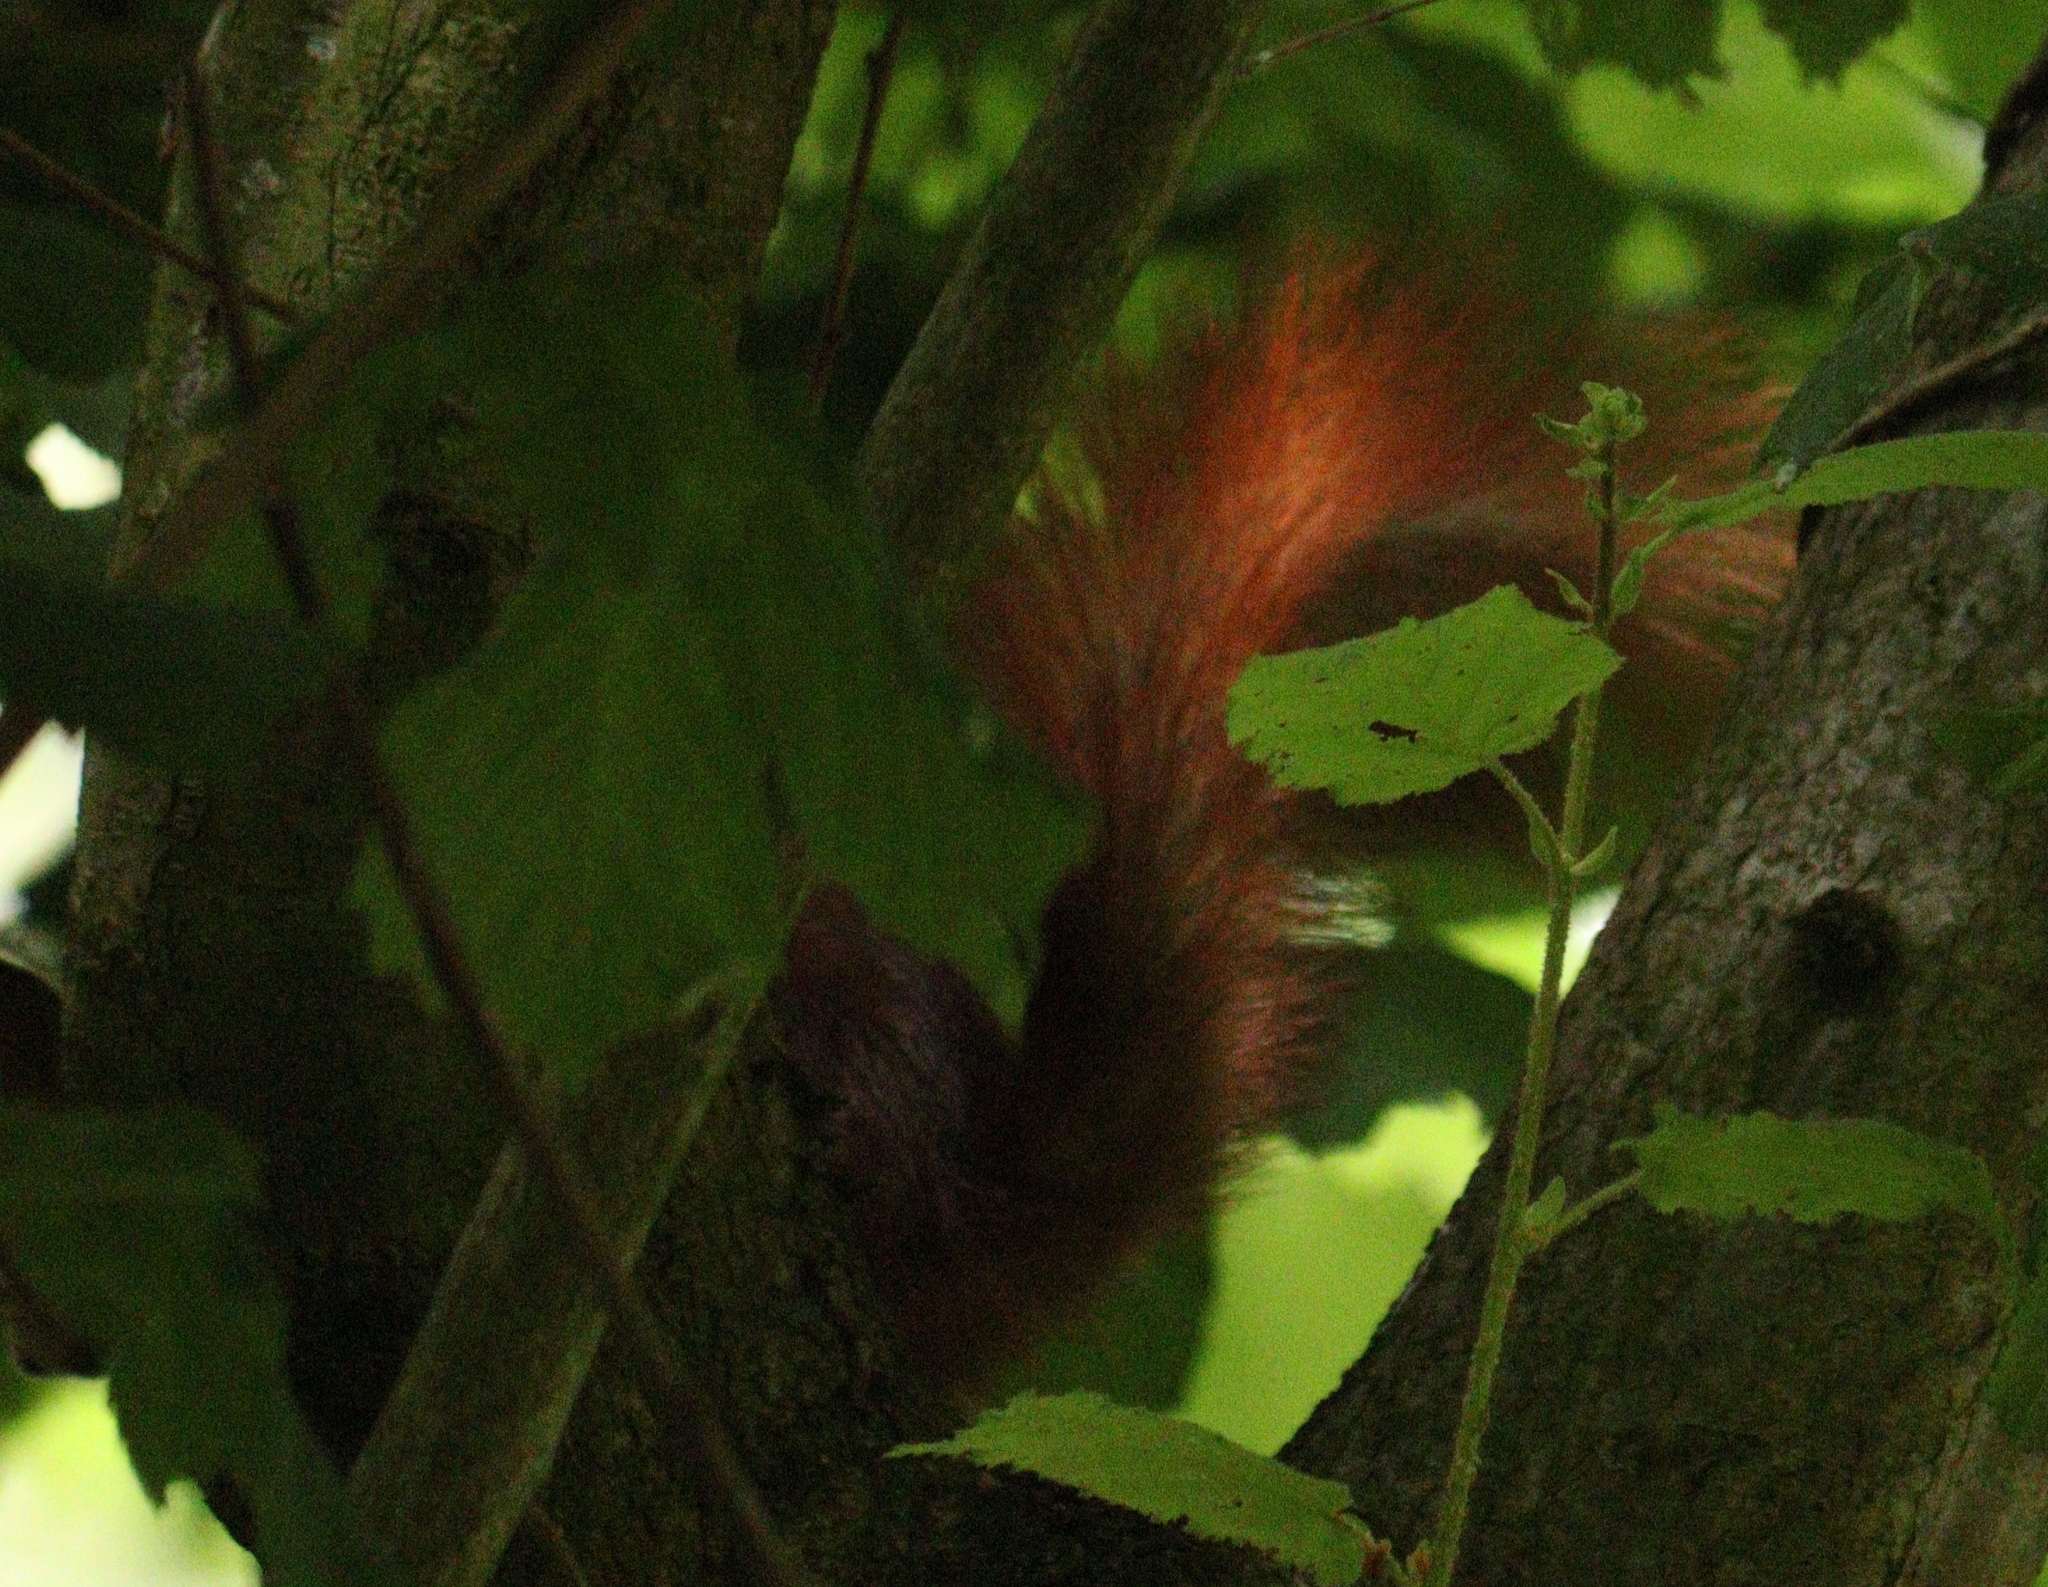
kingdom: Animalia
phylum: Chordata
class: Mammalia
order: Rodentia
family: Sciuridae
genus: Sciurus
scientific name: Sciurus vulgaris
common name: Eurasian red squirrel
